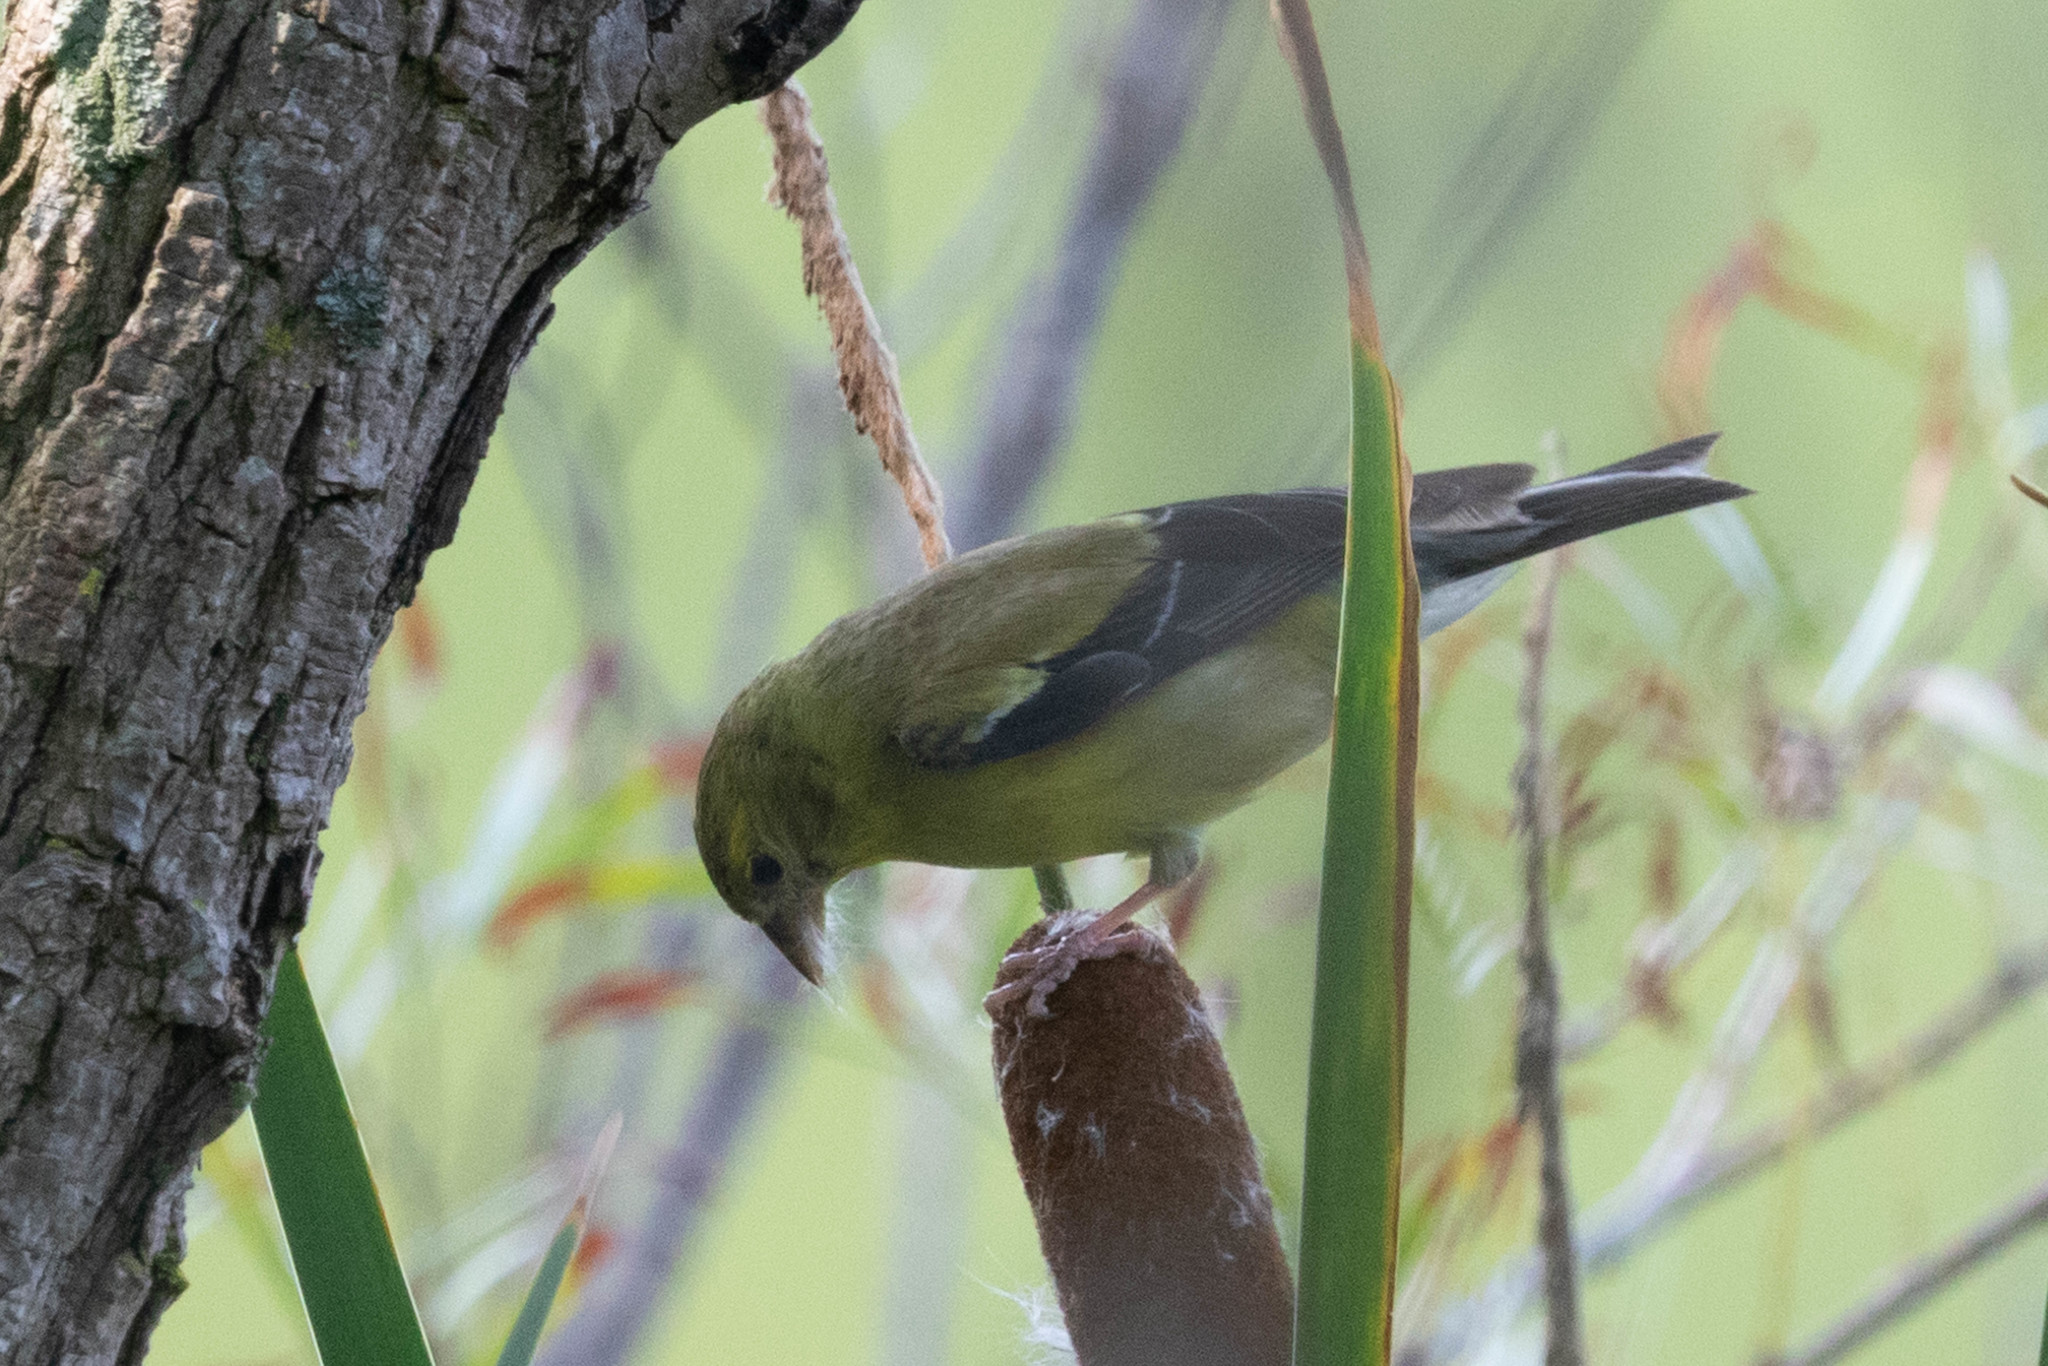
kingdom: Animalia
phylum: Chordata
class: Aves
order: Passeriformes
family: Fringillidae
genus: Spinus
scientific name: Spinus tristis
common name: American goldfinch
